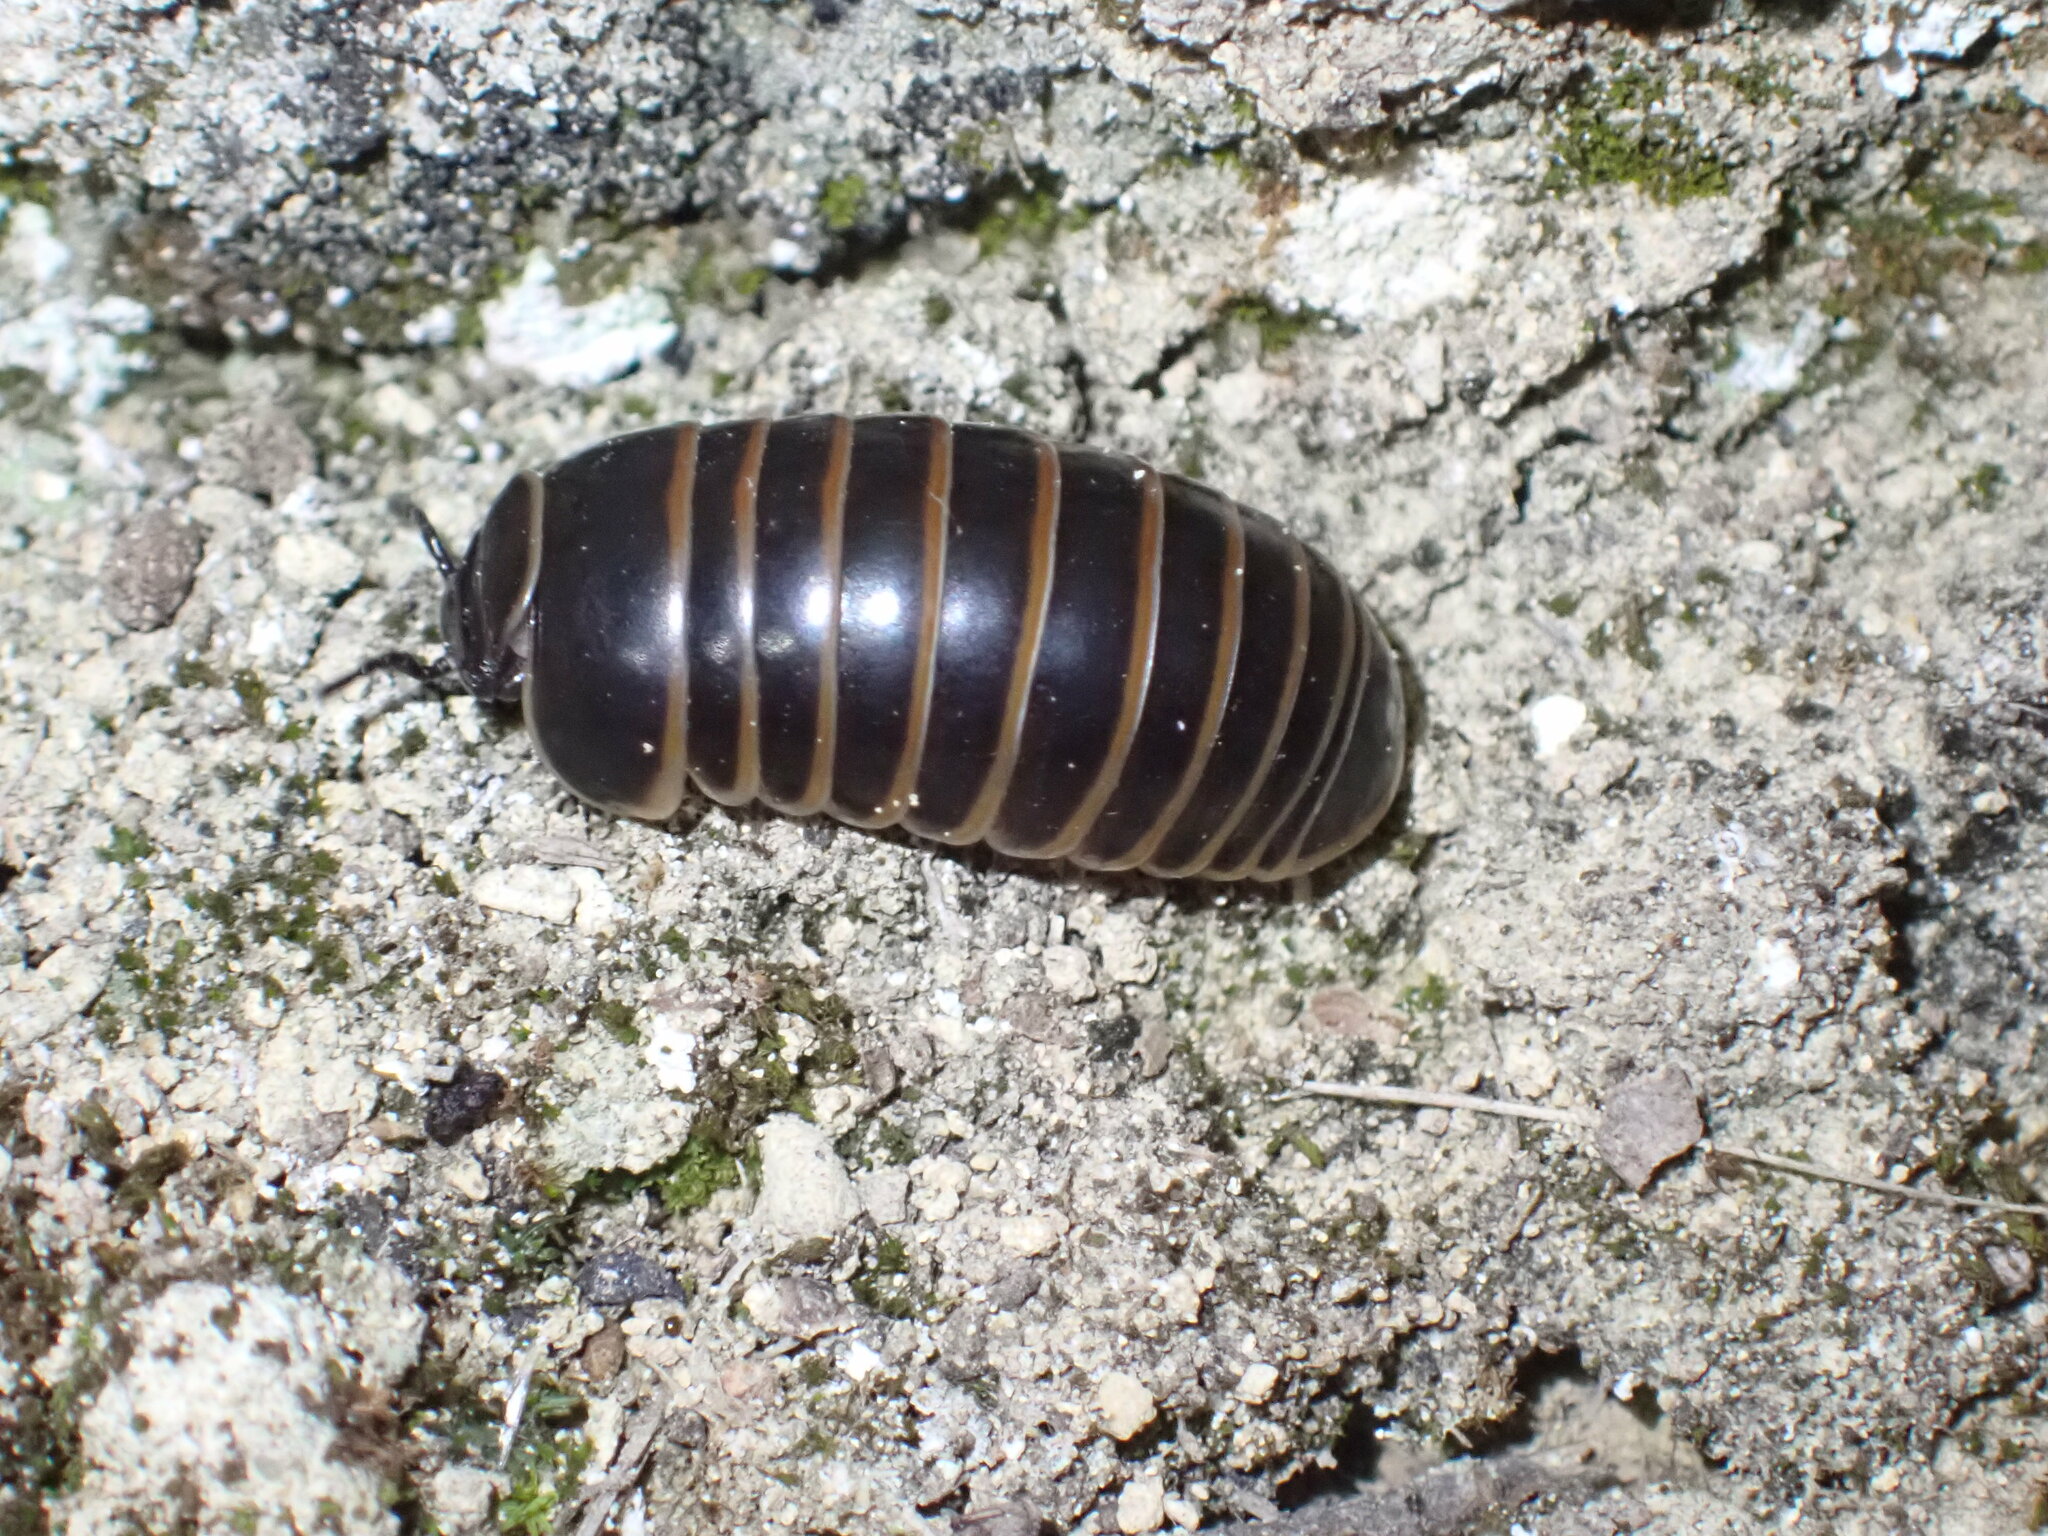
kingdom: Animalia
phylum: Arthropoda
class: Diplopoda
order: Glomerida
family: Glomeridae
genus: Glomeris
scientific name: Glomeris marginata
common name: Bordered pill millipede
